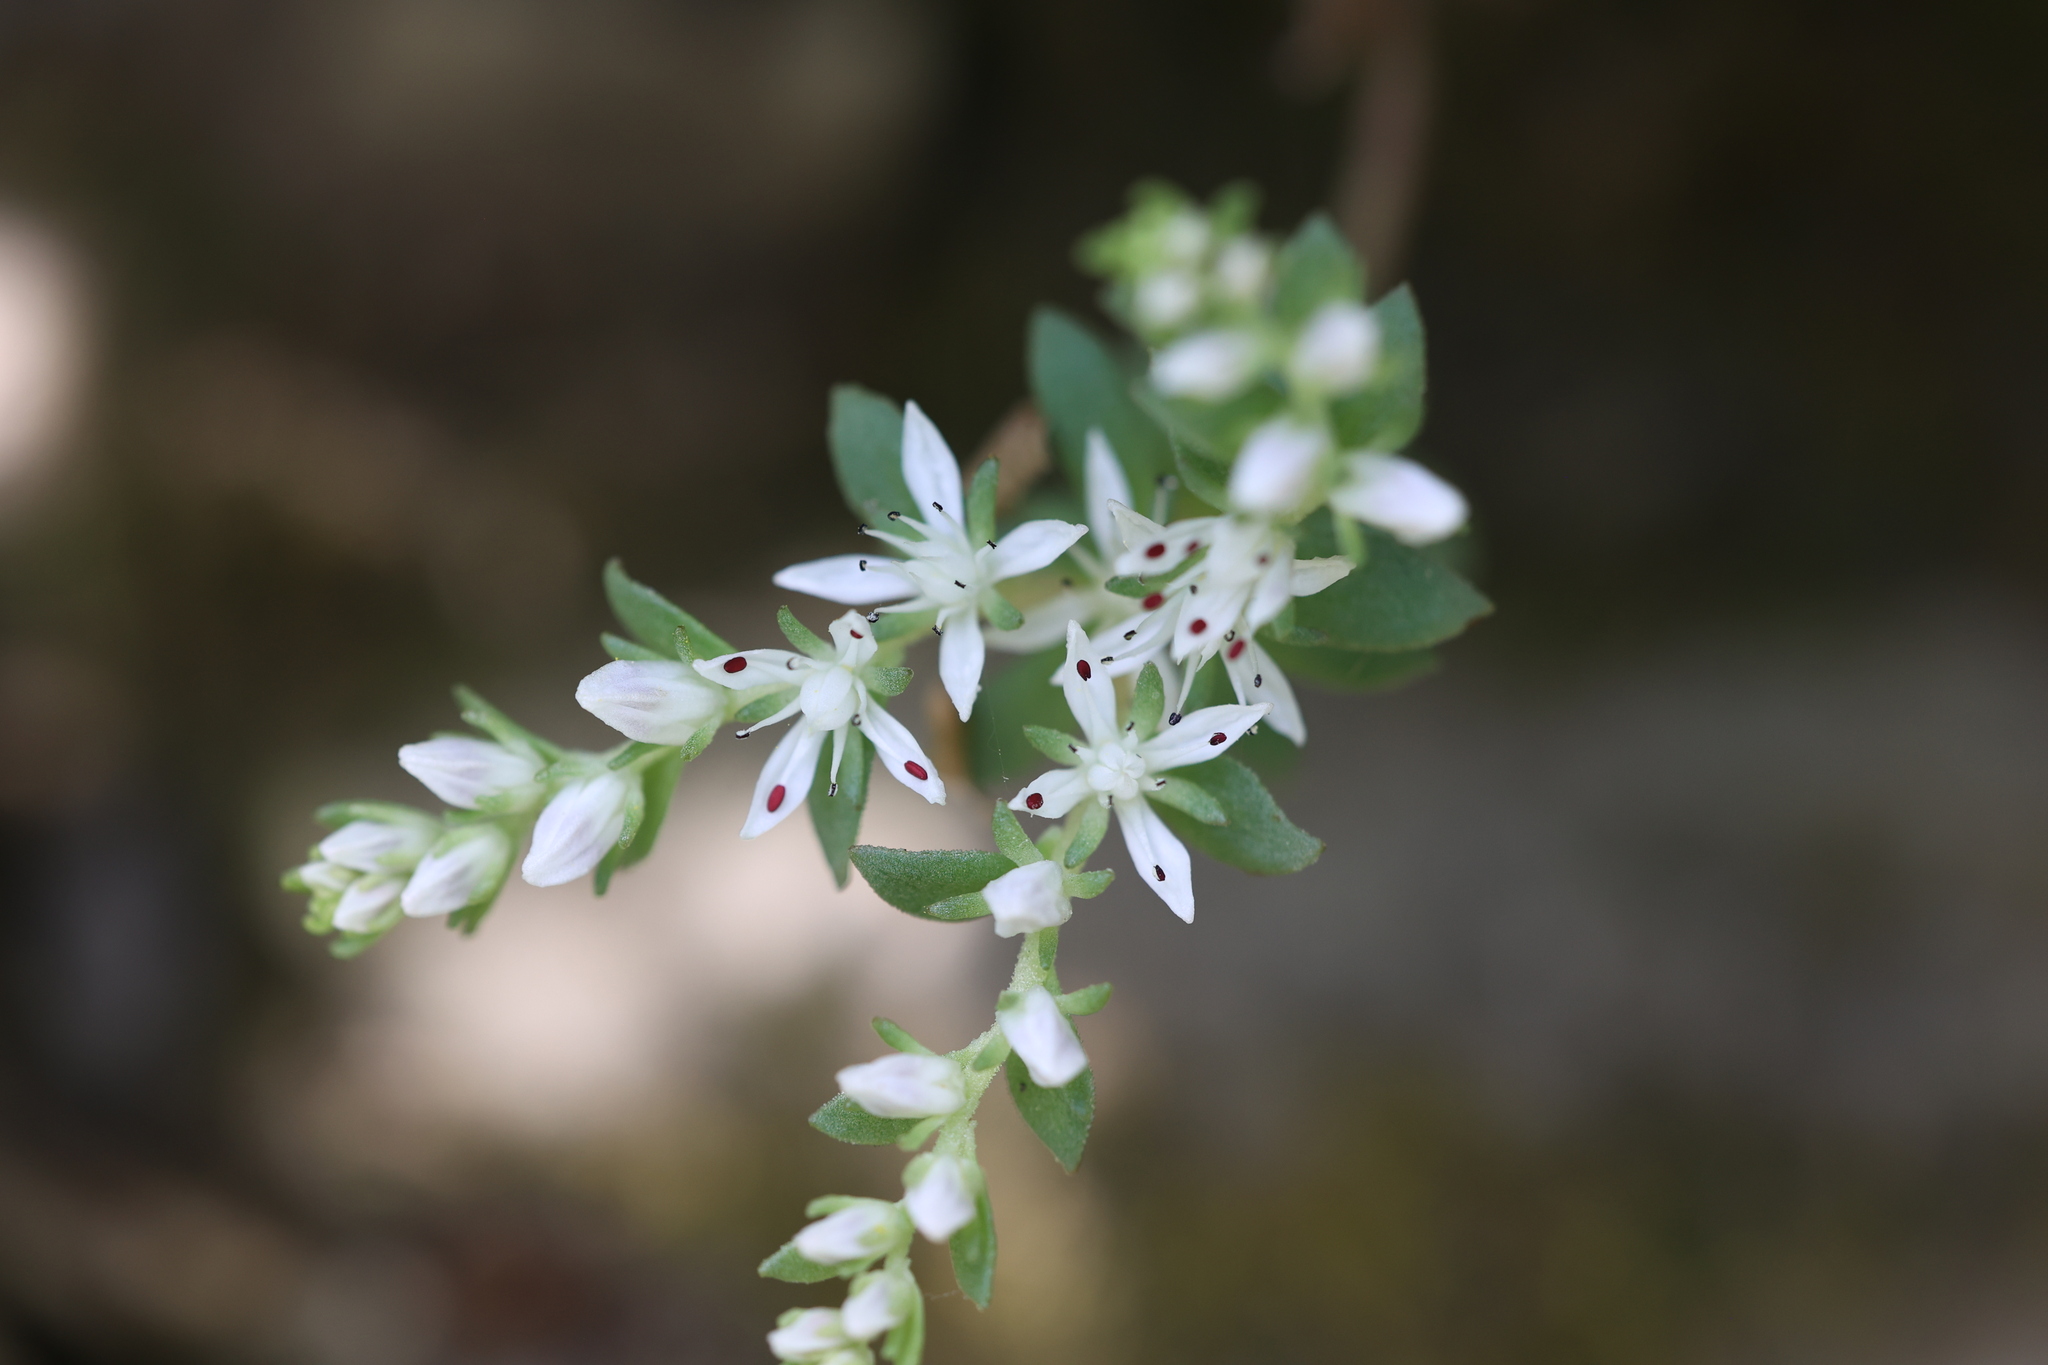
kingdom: Plantae
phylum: Tracheophyta
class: Magnoliopsida
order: Saxifragales
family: Crassulaceae
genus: Sedum
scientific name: Sedum ternatum
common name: Wild stonecrop
